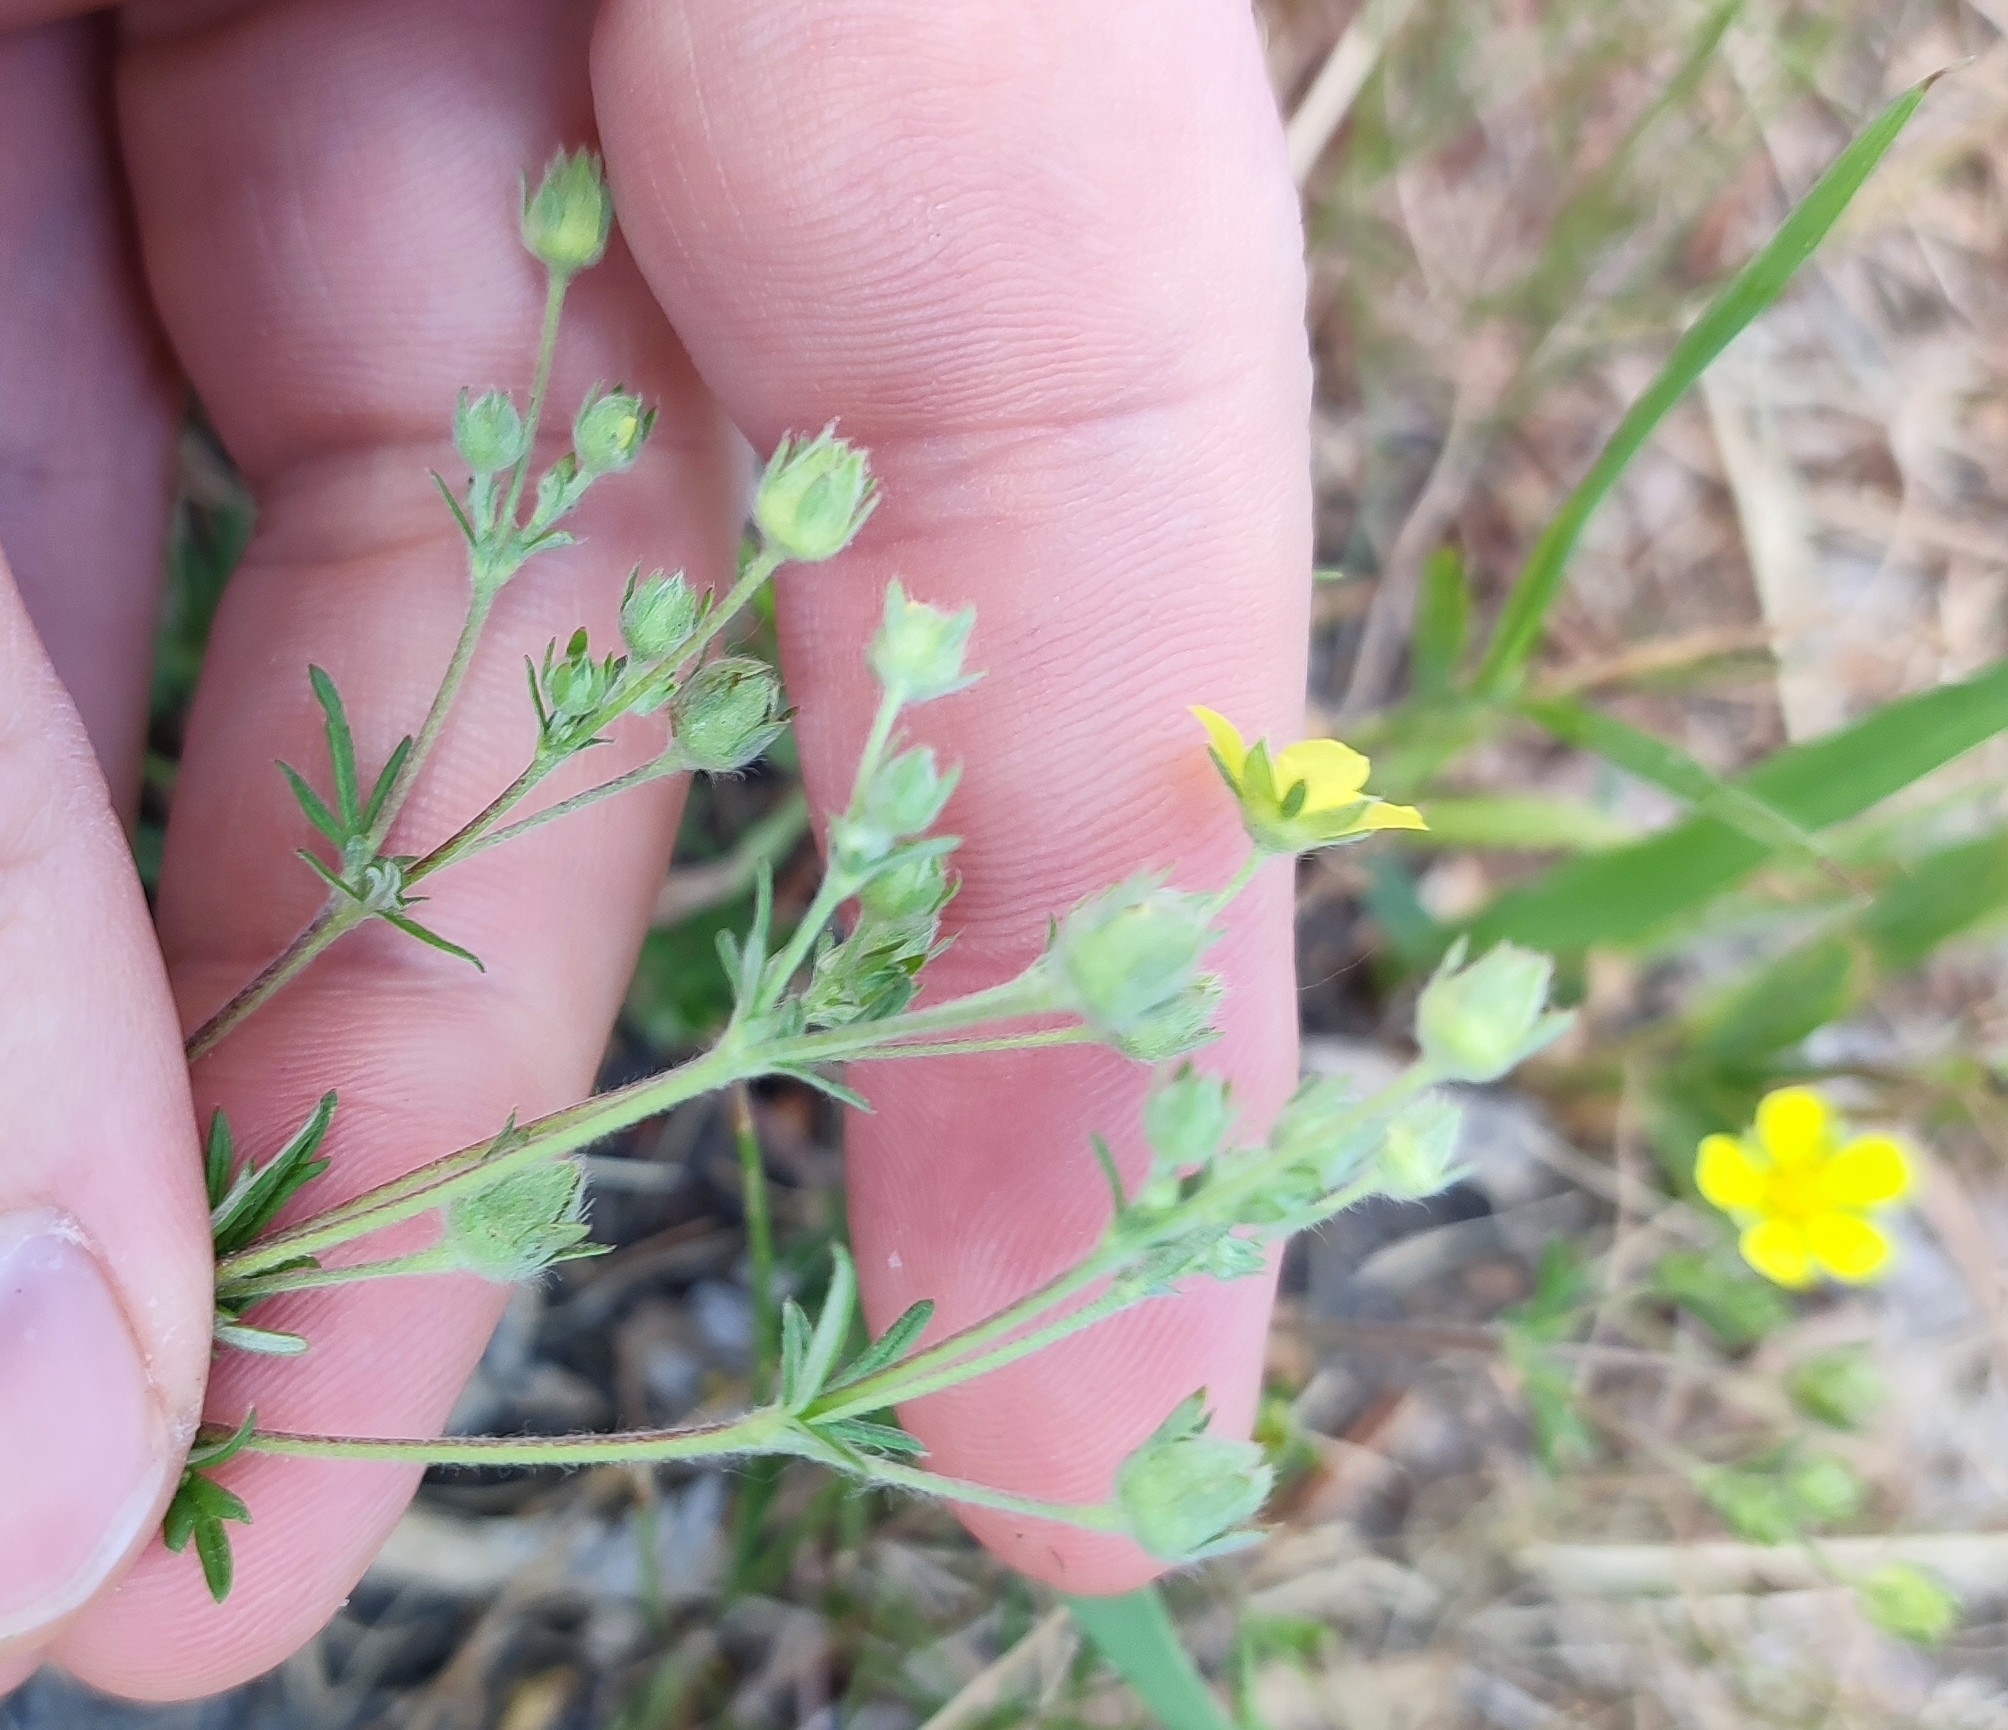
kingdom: Plantae
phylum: Tracheophyta
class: Magnoliopsida
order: Rosales
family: Rosaceae
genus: Potentilla
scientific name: Potentilla argentea
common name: Hoary cinquefoil
